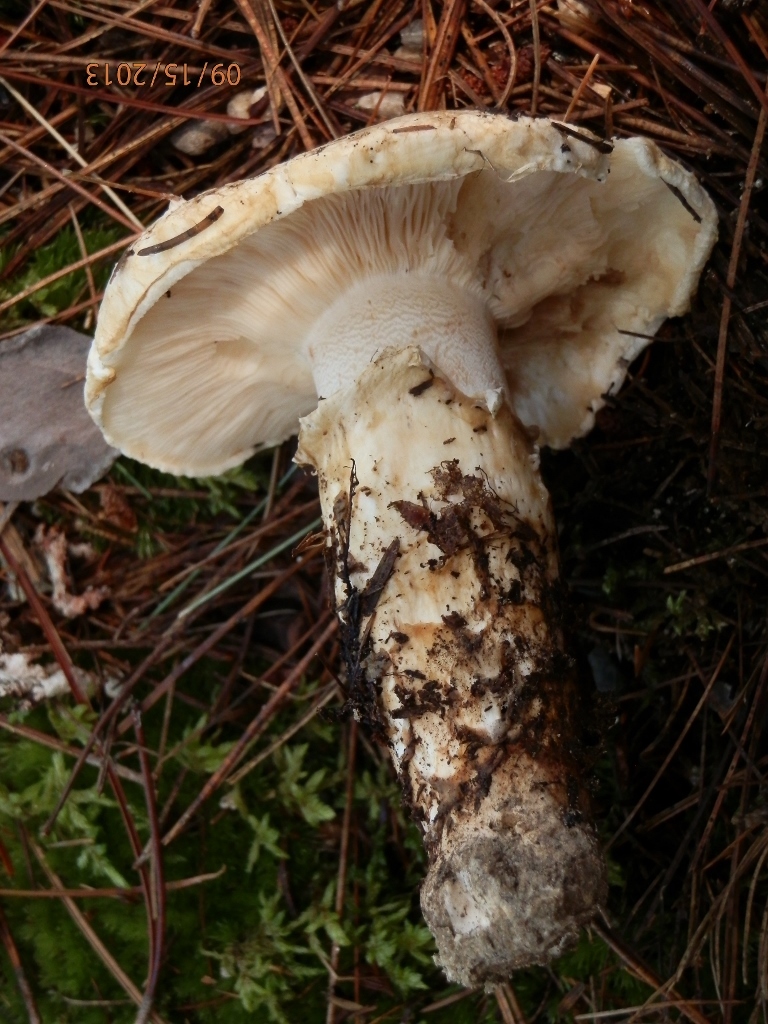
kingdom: Fungi
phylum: Basidiomycota
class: Agaricomycetes
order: Agaricales
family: Tricholomataceae
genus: Tricholoma
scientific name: Tricholoma magnivelare
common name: American matsutake
